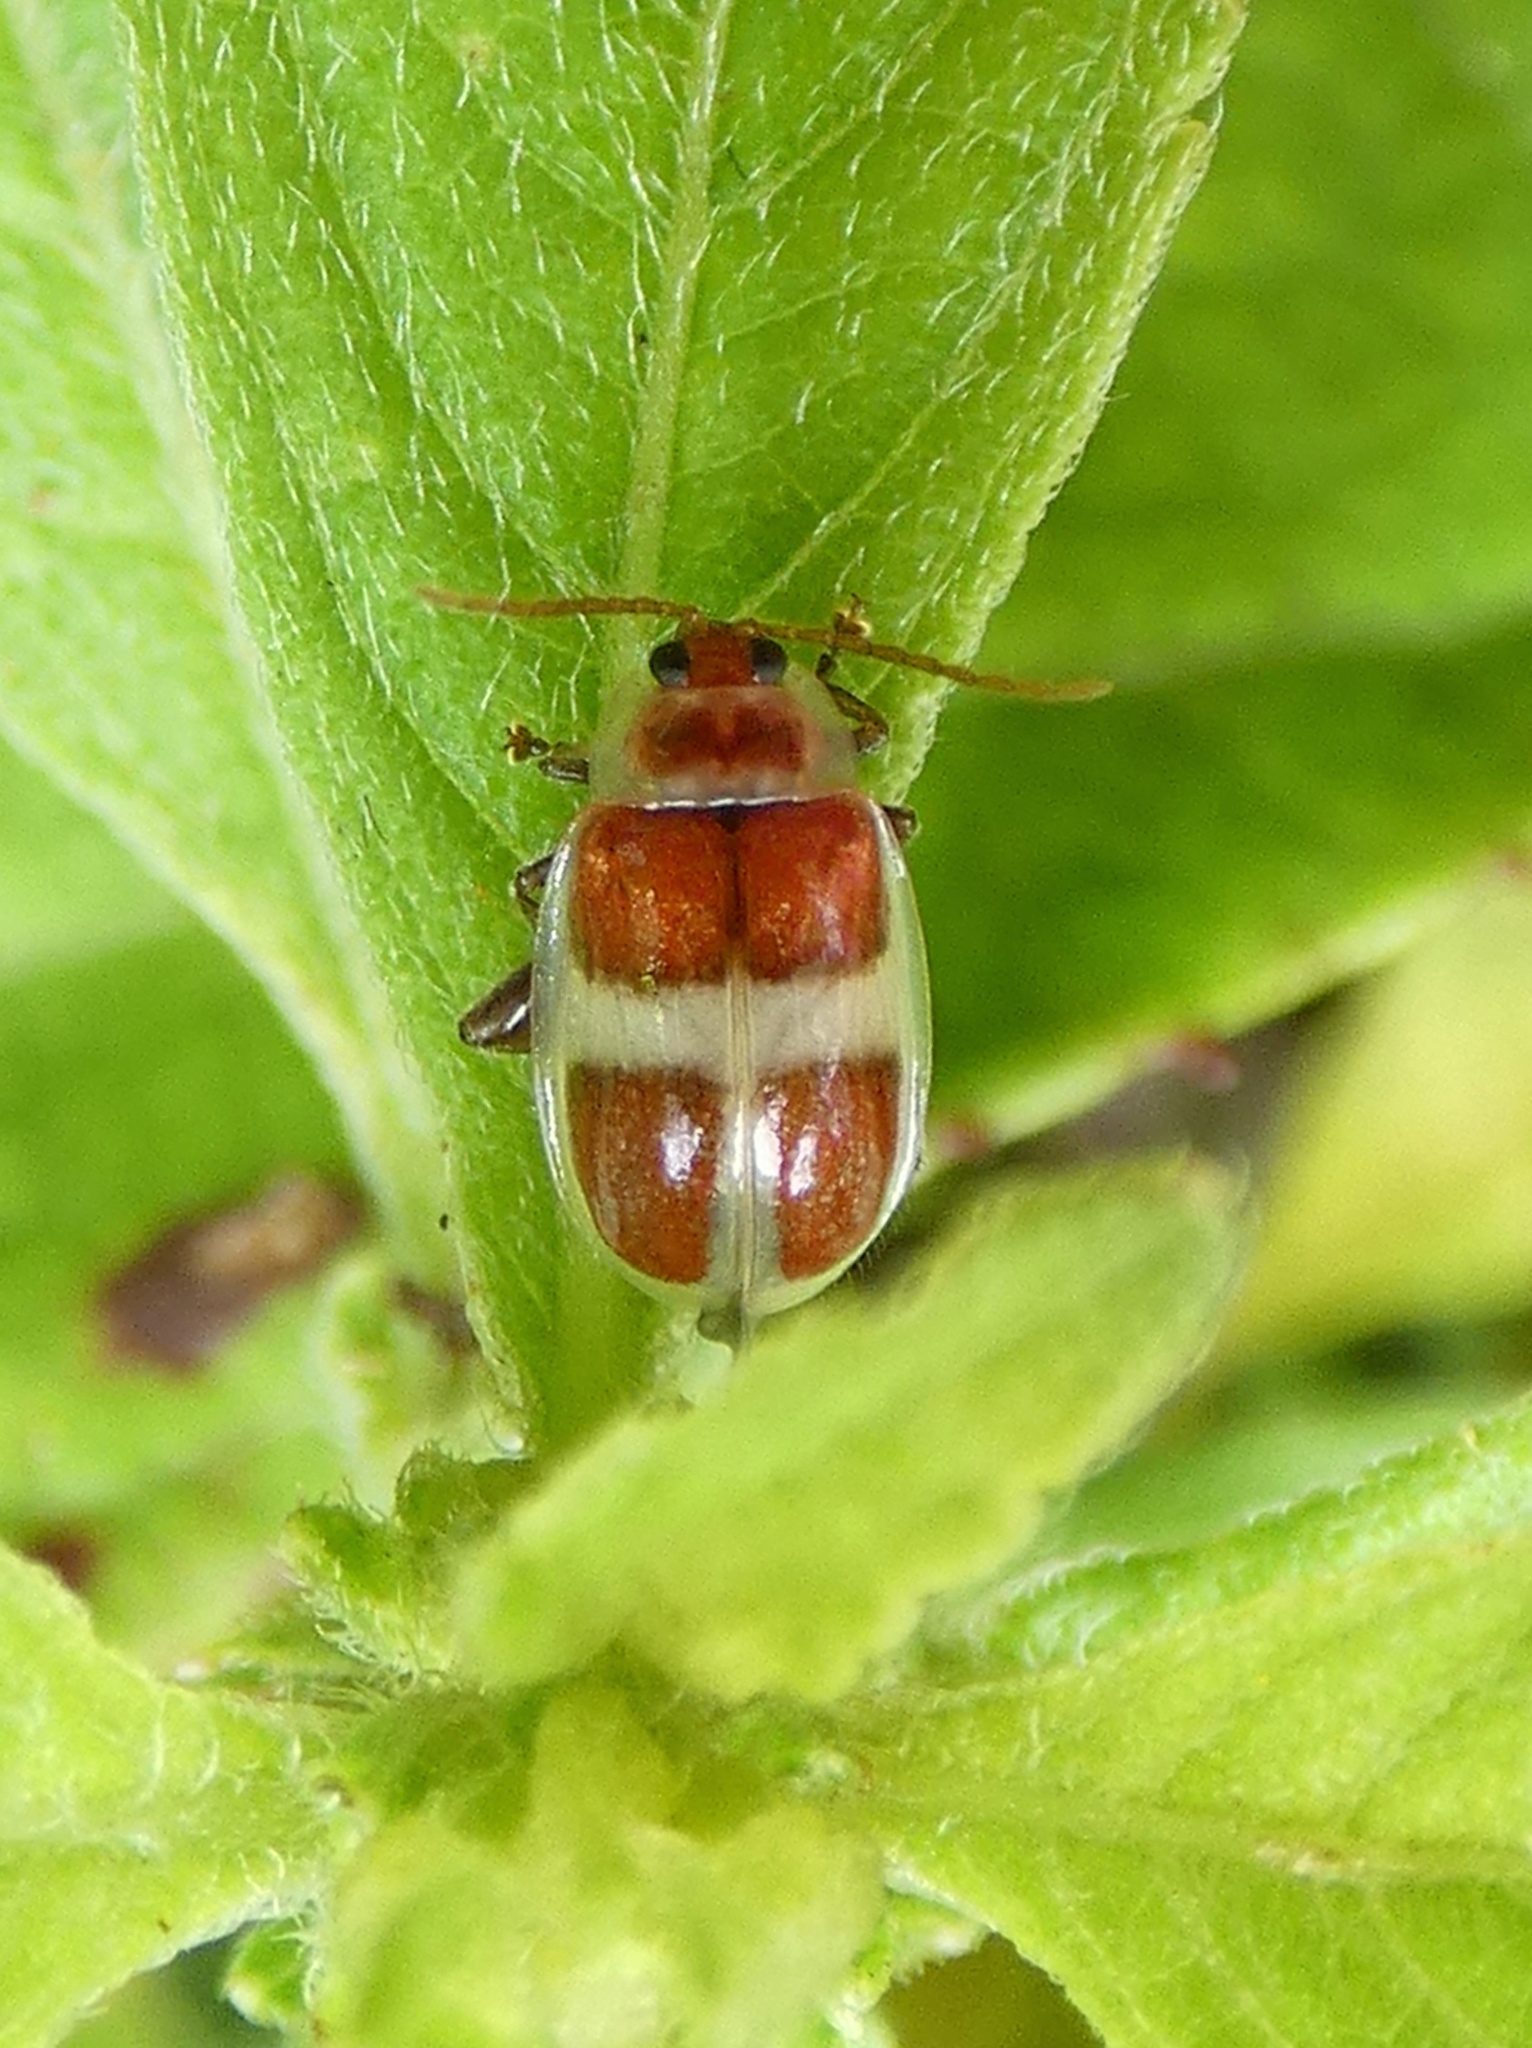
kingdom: Animalia
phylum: Arthropoda
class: Insecta
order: Coleoptera
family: Chrysomelidae
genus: Asphaera
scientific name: Asphaera discicollis
